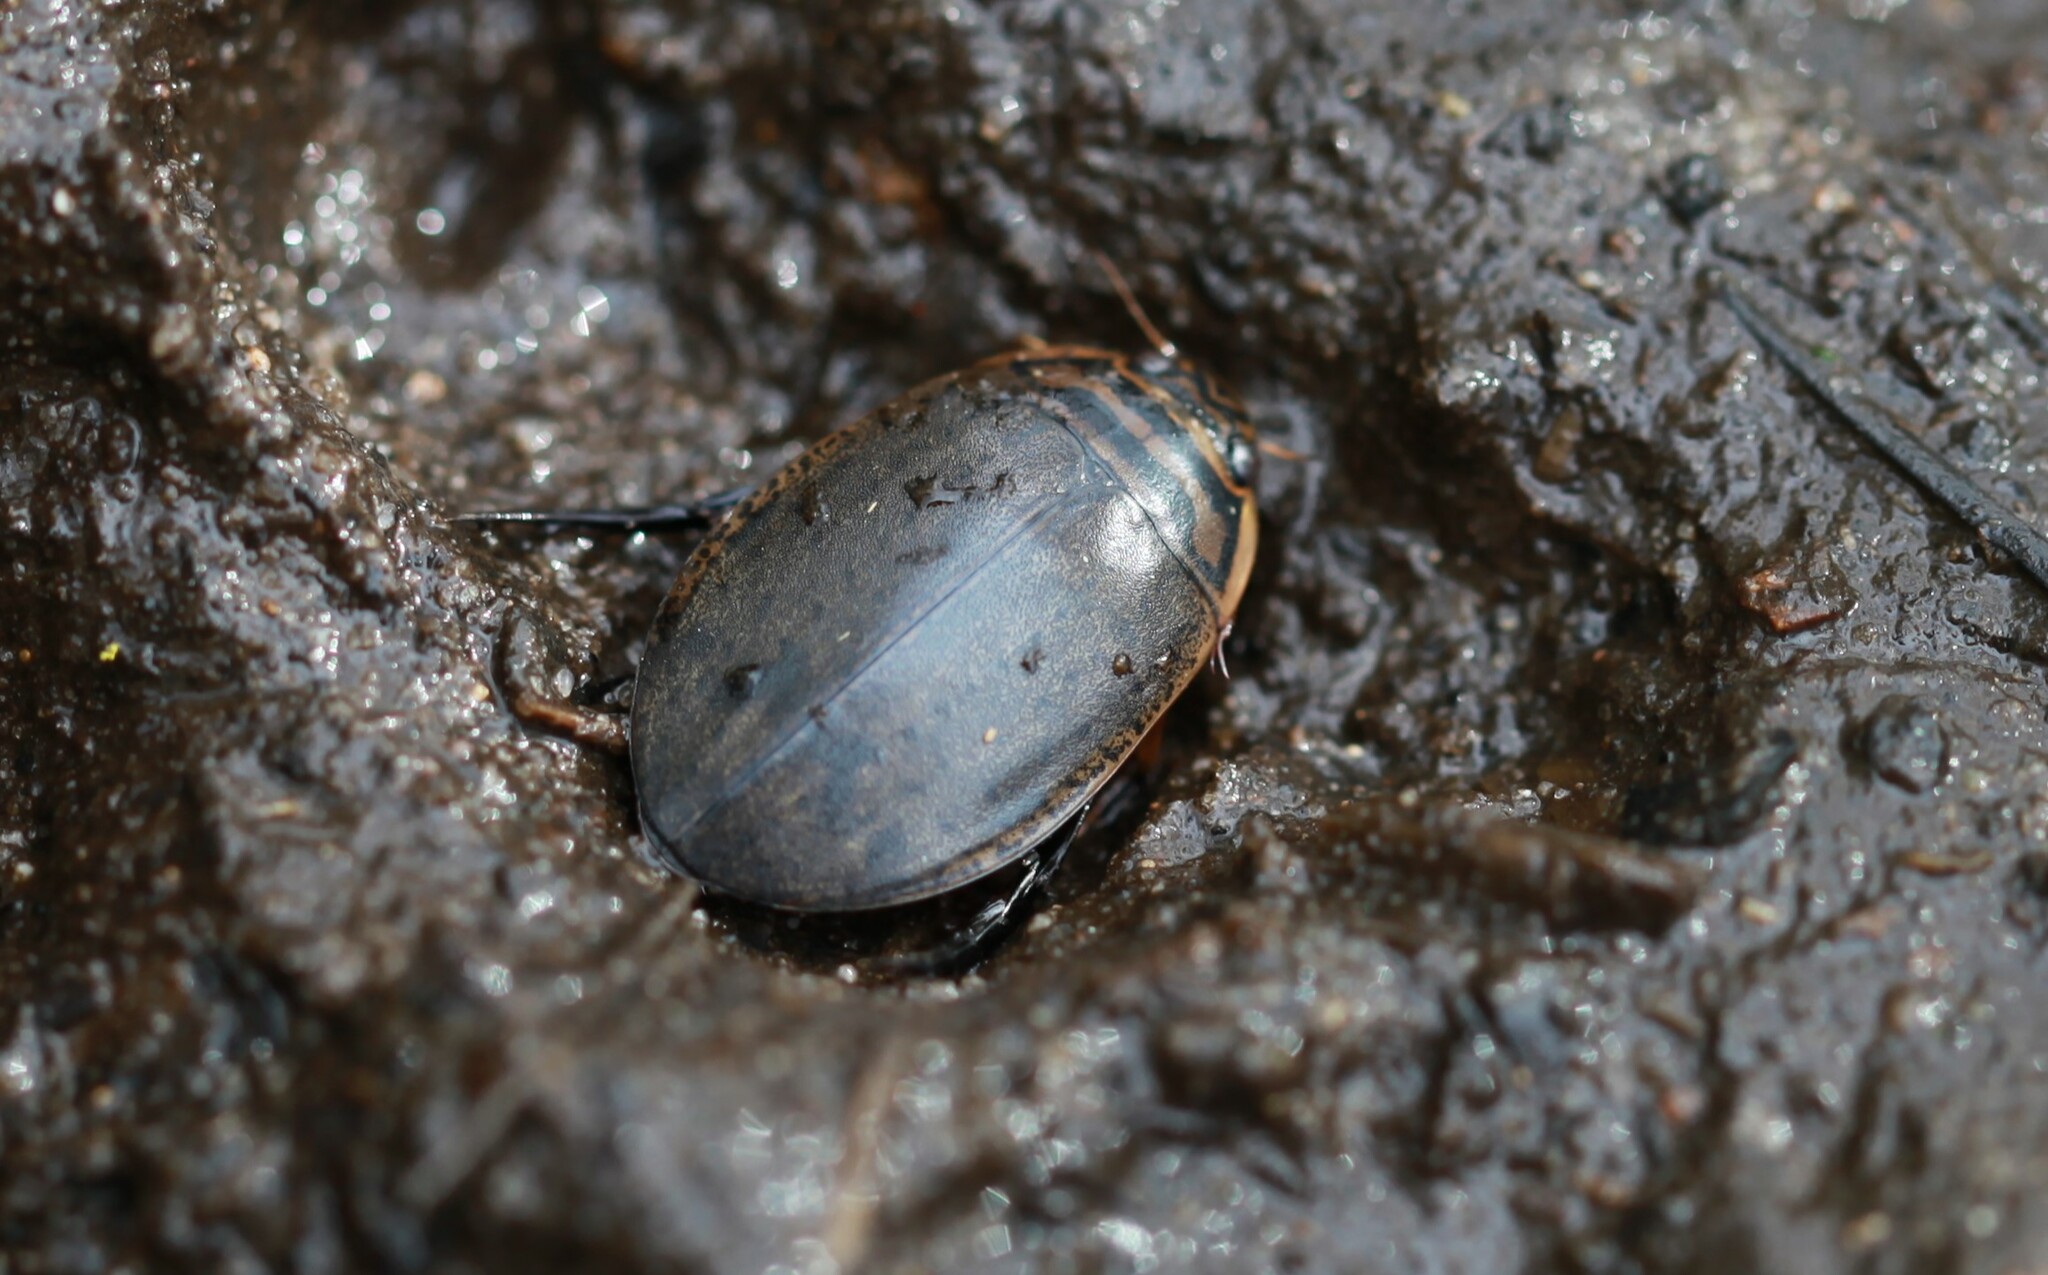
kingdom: Animalia
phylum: Arthropoda
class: Insecta
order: Coleoptera
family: Dytiscidae
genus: Acilius
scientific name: Acilius sulcatus
